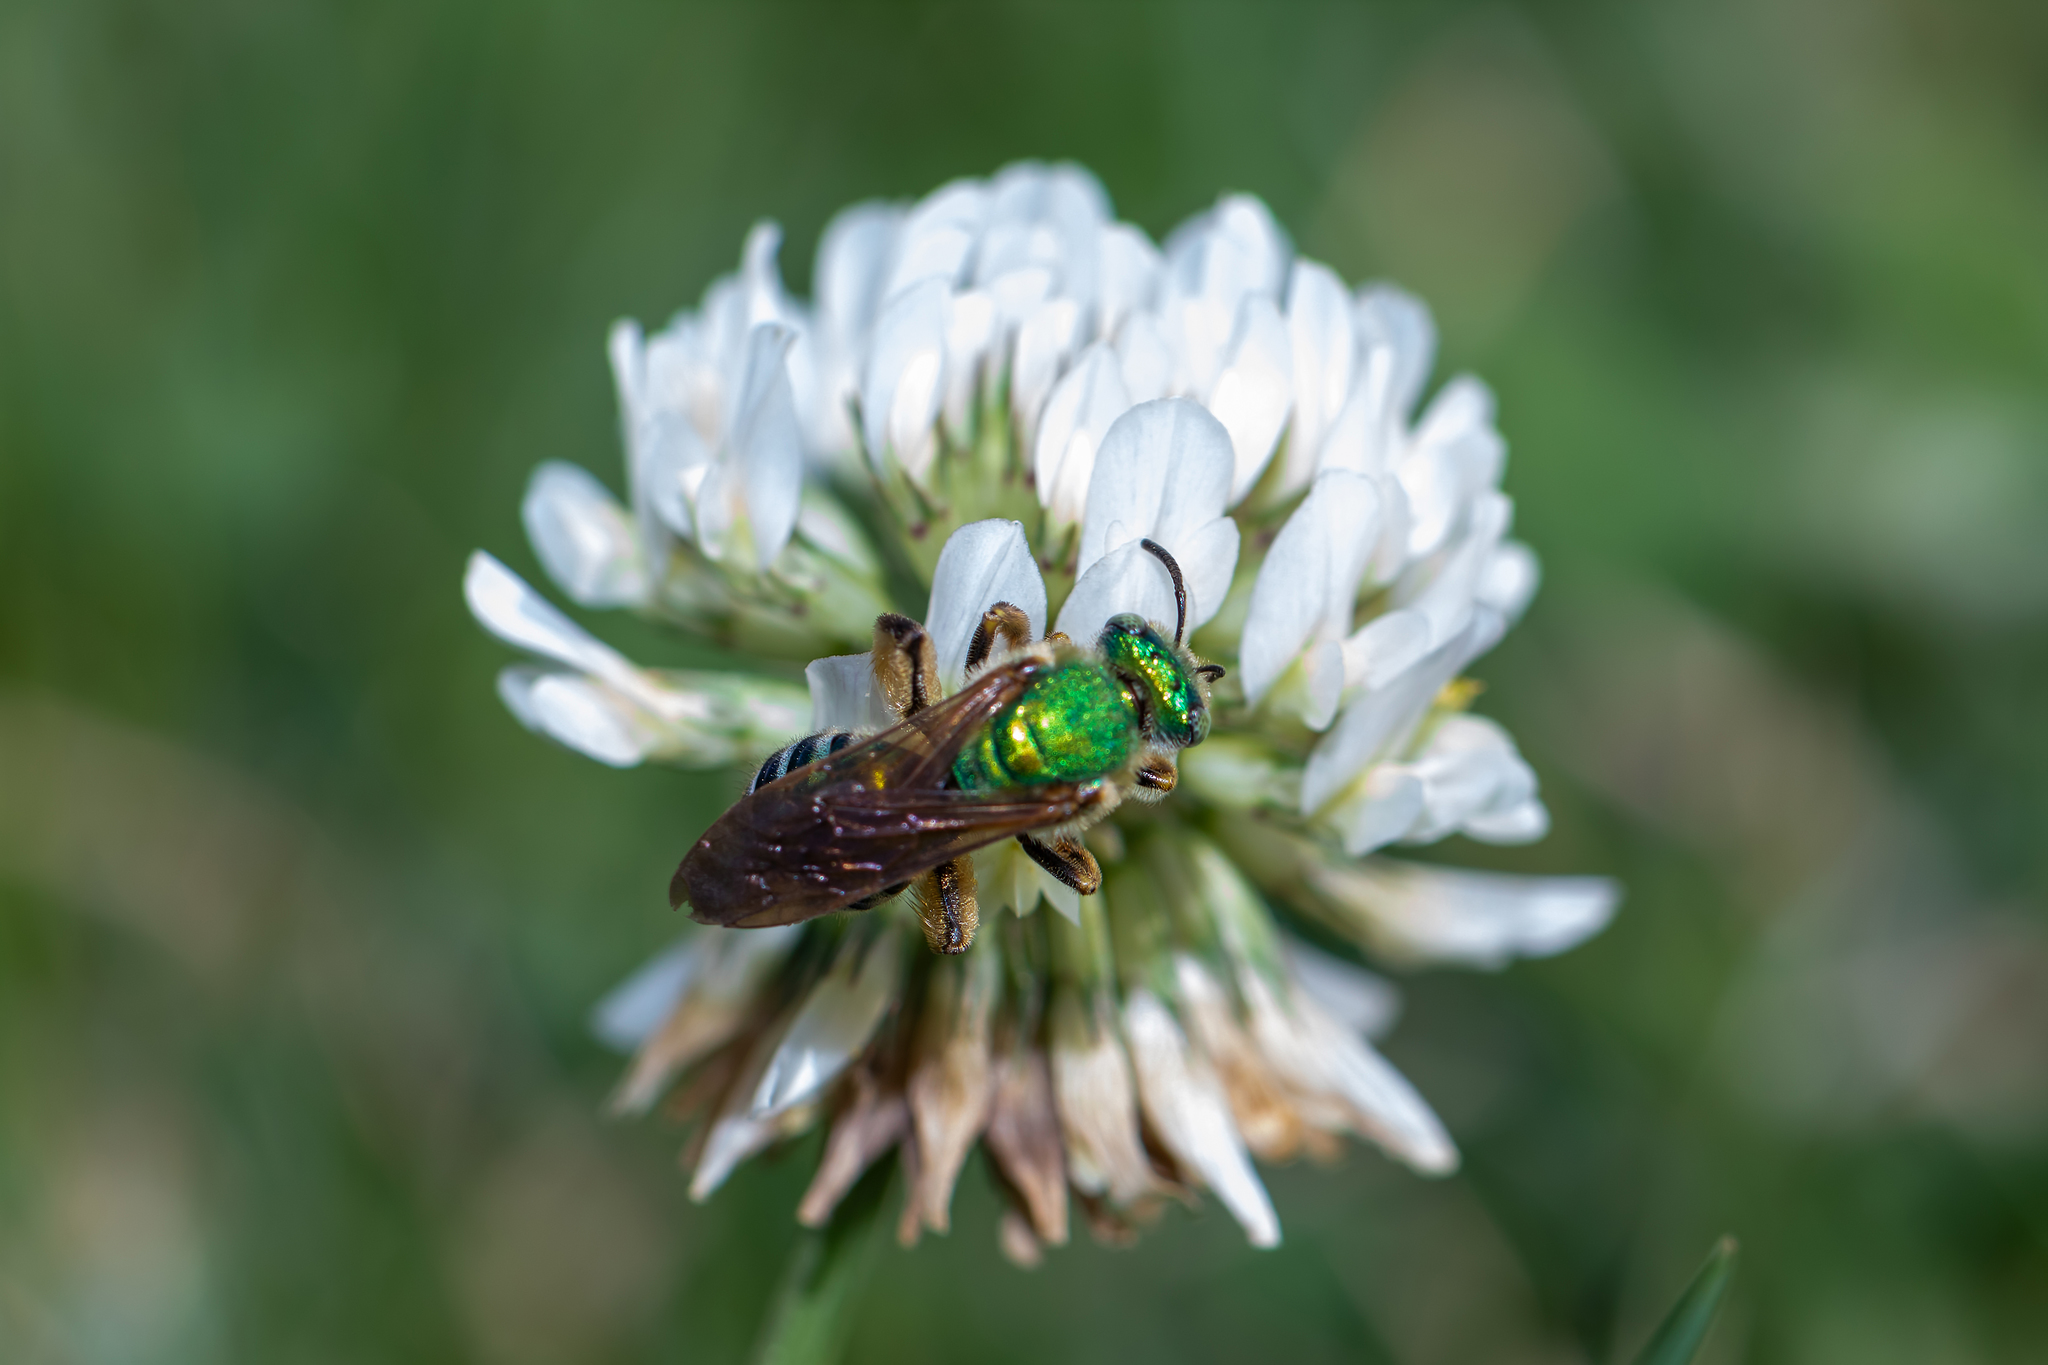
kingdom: Animalia
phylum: Arthropoda
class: Insecta
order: Hymenoptera
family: Halictidae
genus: Agapostemon
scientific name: Agapostemon splendens
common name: Brown-winged striped sweat bee
